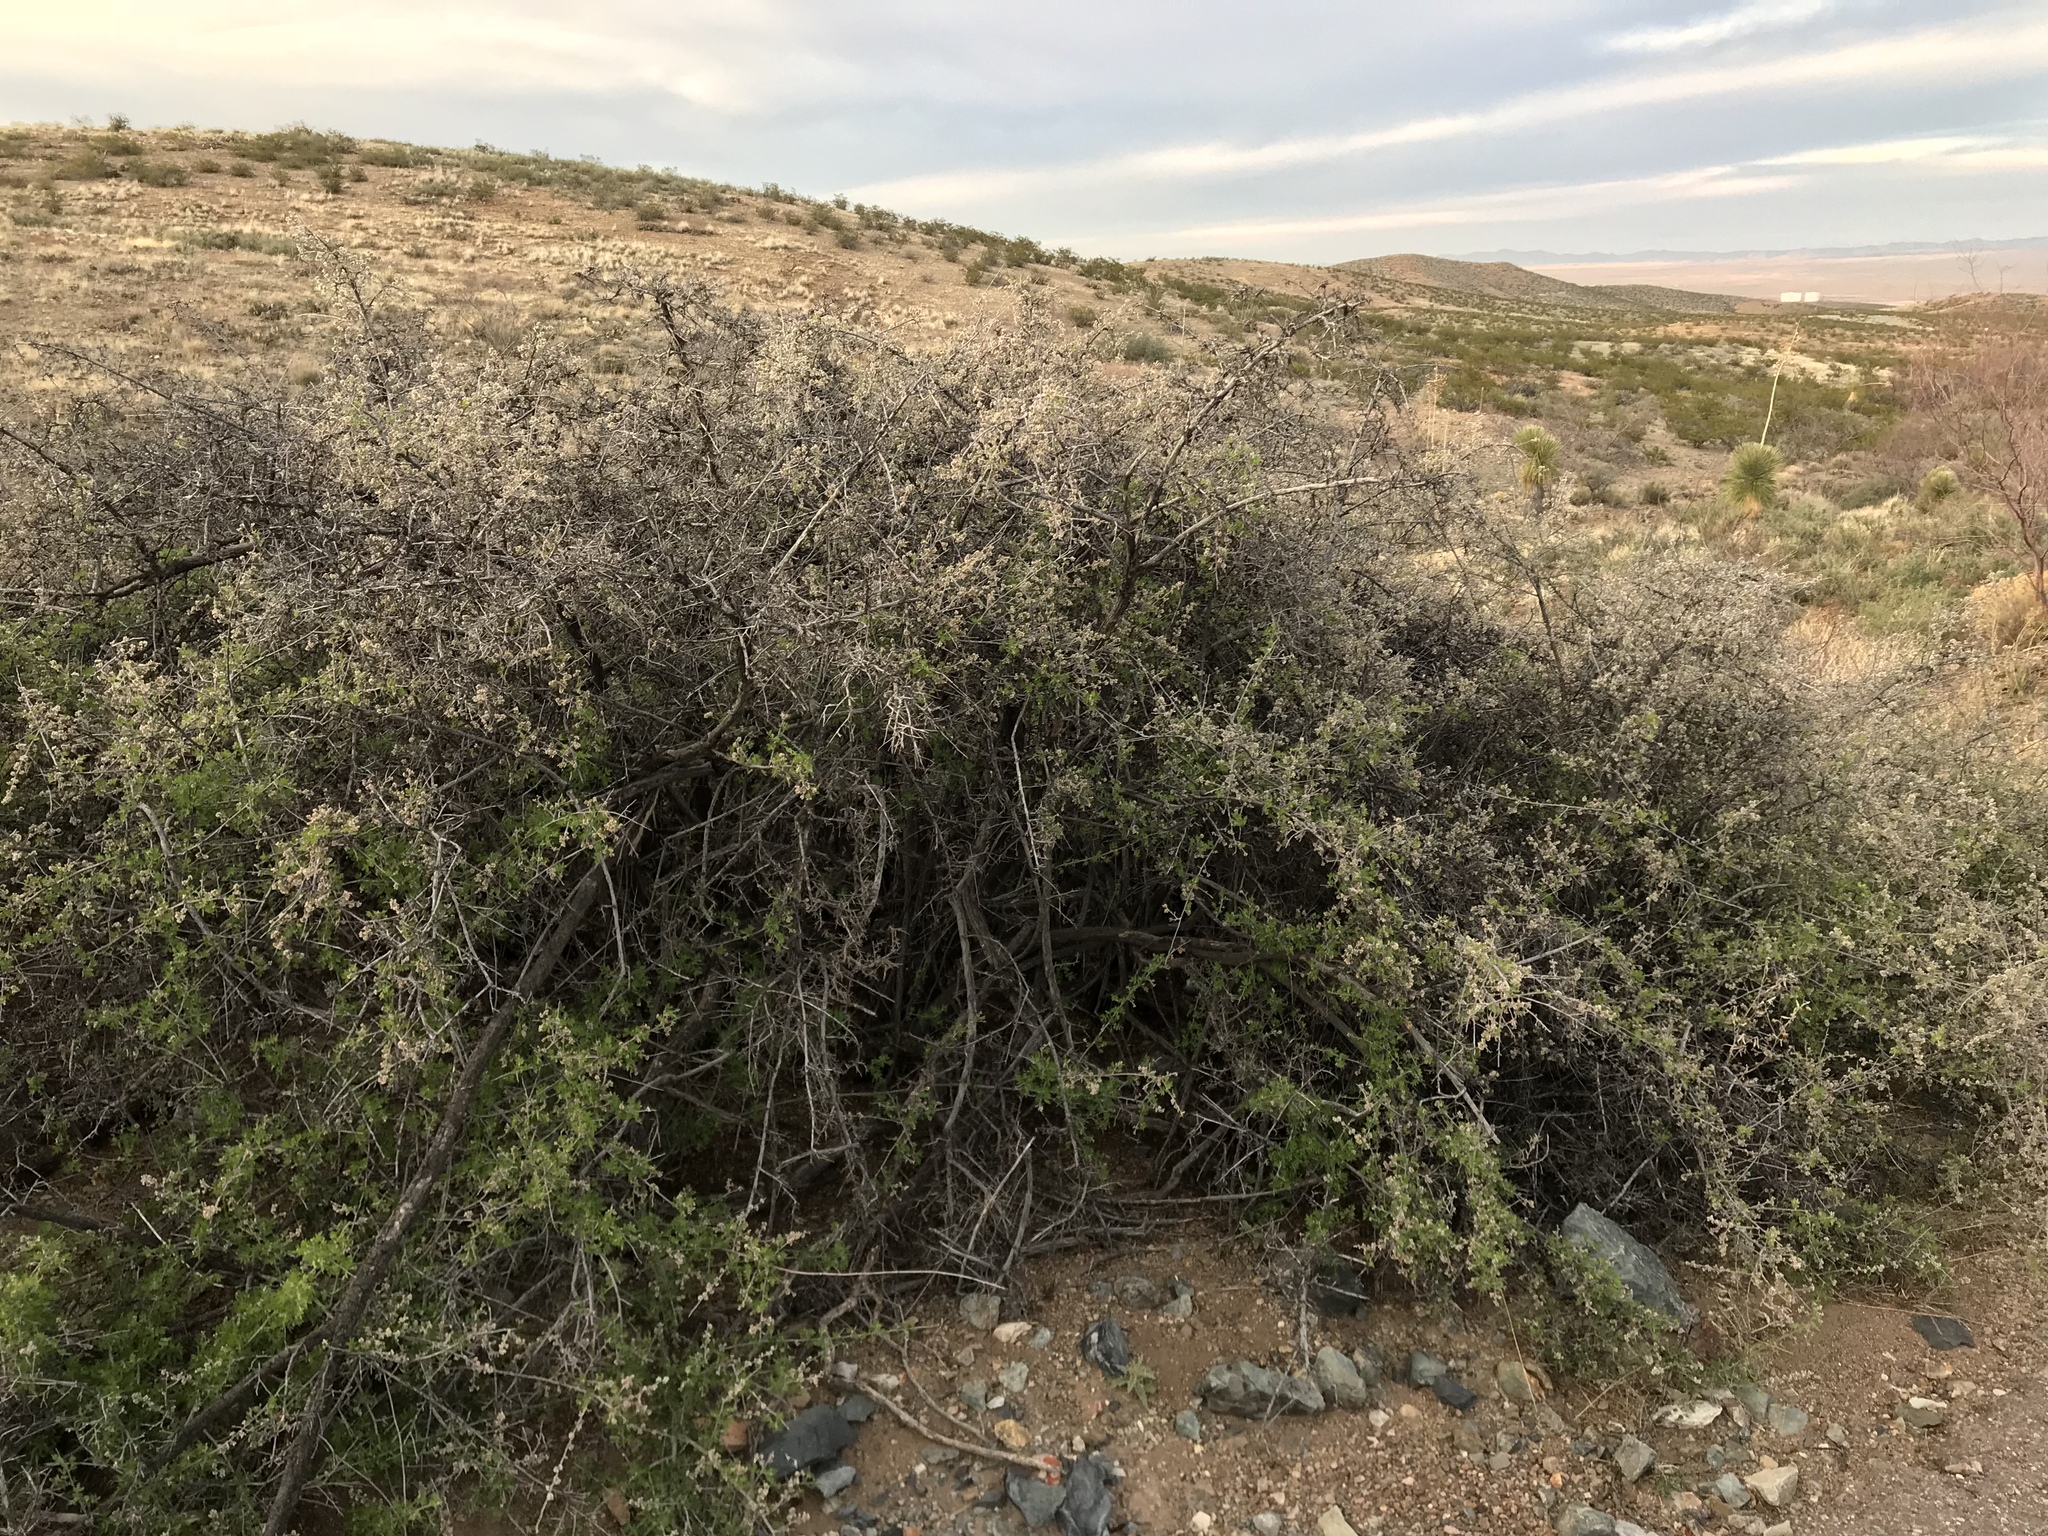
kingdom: Plantae
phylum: Tracheophyta
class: Magnoliopsida
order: Sapindales
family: Anacardiaceae
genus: Rhus
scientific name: Rhus microphylla
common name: Desert sumac
